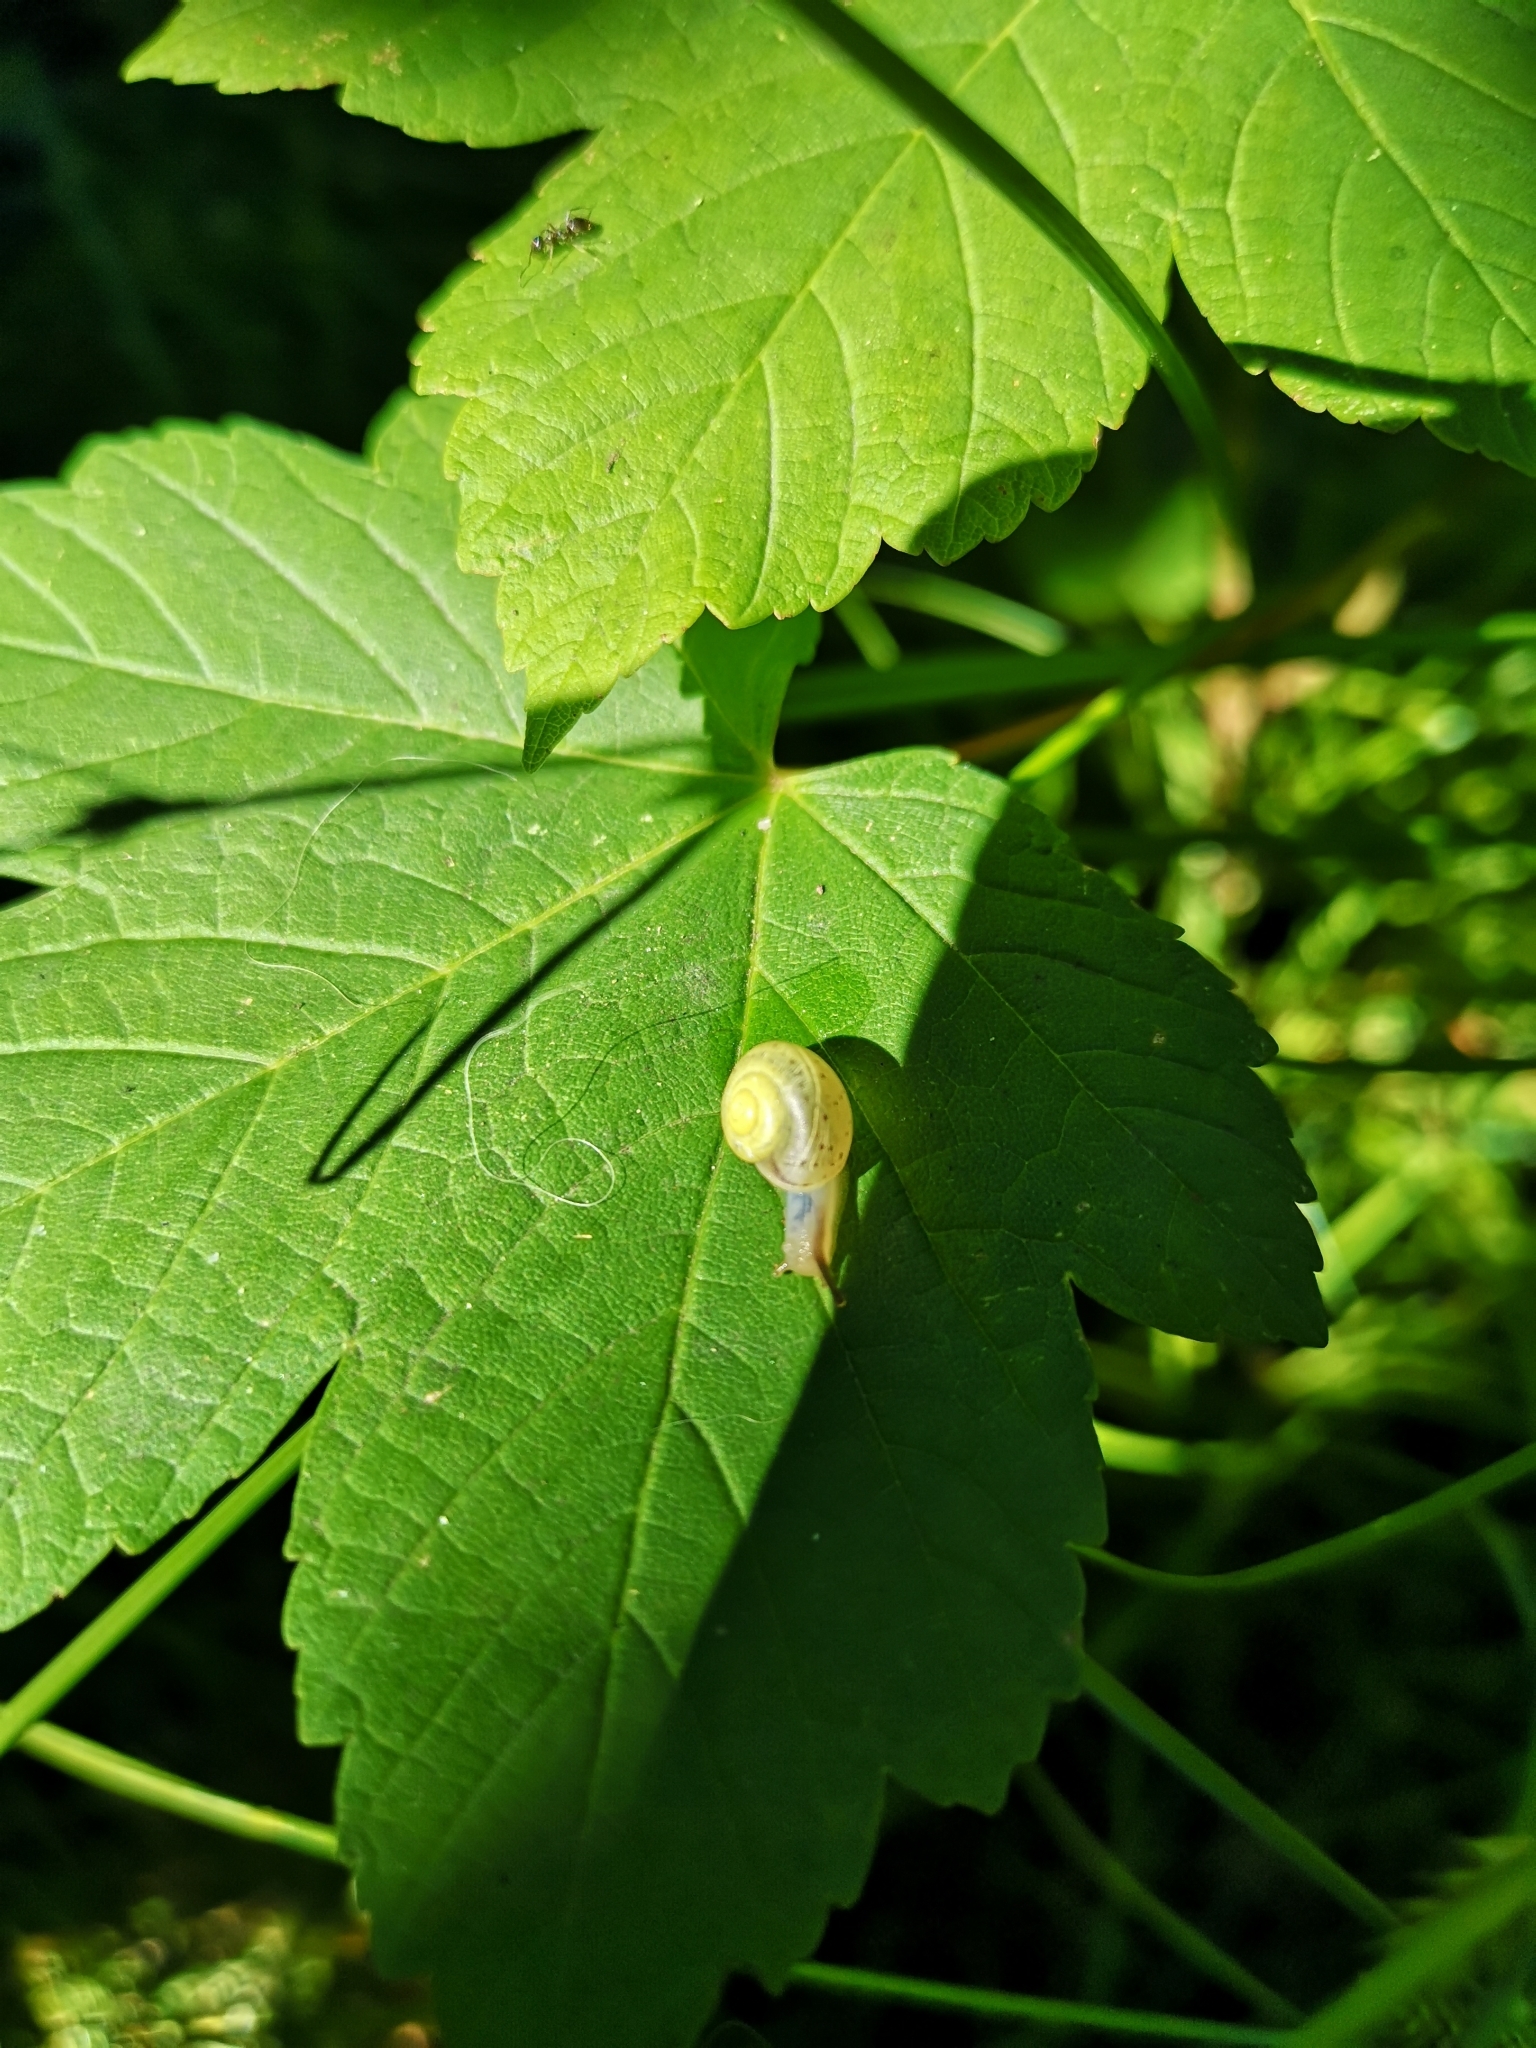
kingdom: Animalia
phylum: Mollusca
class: Gastropoda
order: Stylommatophora
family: Camaenidae
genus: Fruticicola
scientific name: Fruticicola fruticum
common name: Bush snail
